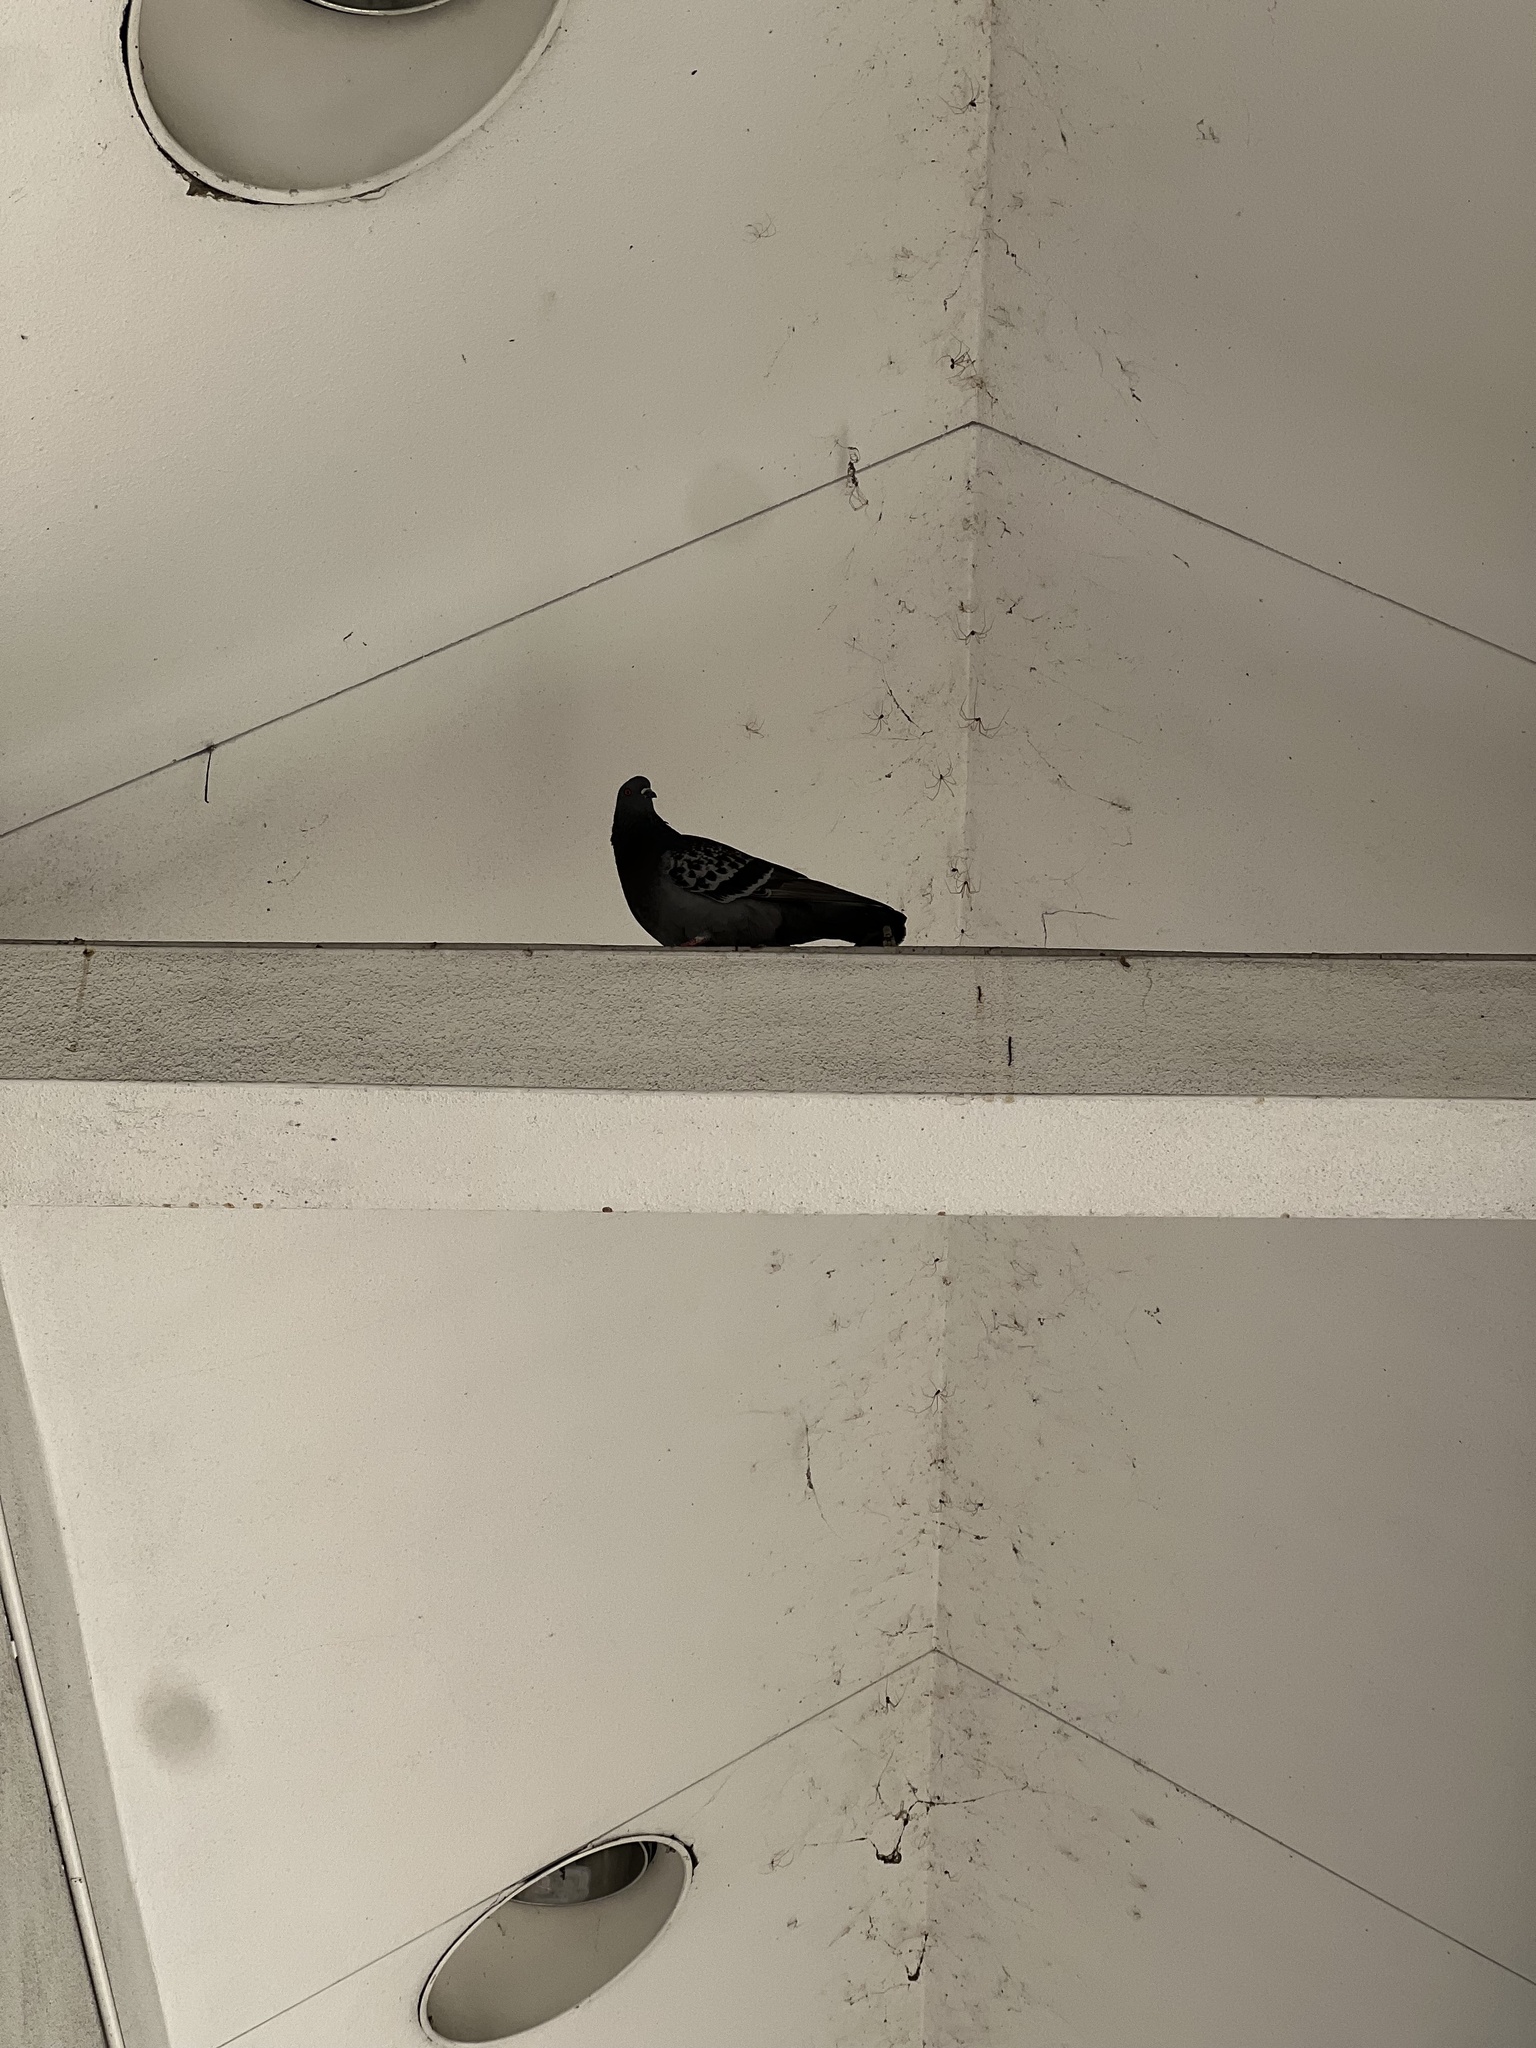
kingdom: Animalia
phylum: Chordata
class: Aves
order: Columbiformes
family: Columbidae
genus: Columba
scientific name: Columba livia
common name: Rock pigeon
